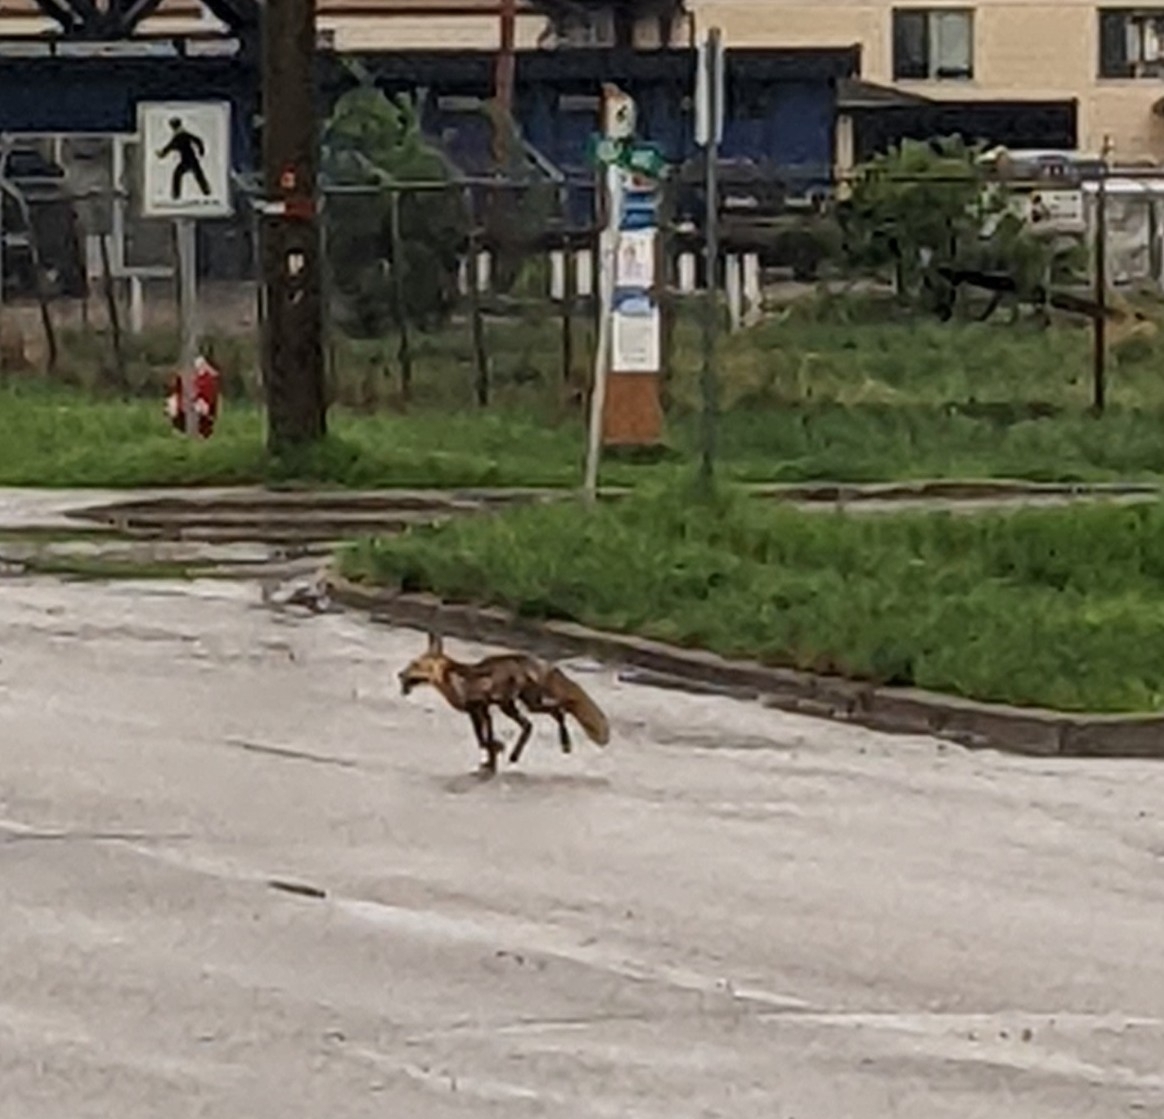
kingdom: Animalia
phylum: Chordata
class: Mammalia
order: Carnivora
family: Canidae
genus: Vulpes
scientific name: Vulpes vulpes
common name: Red fox
